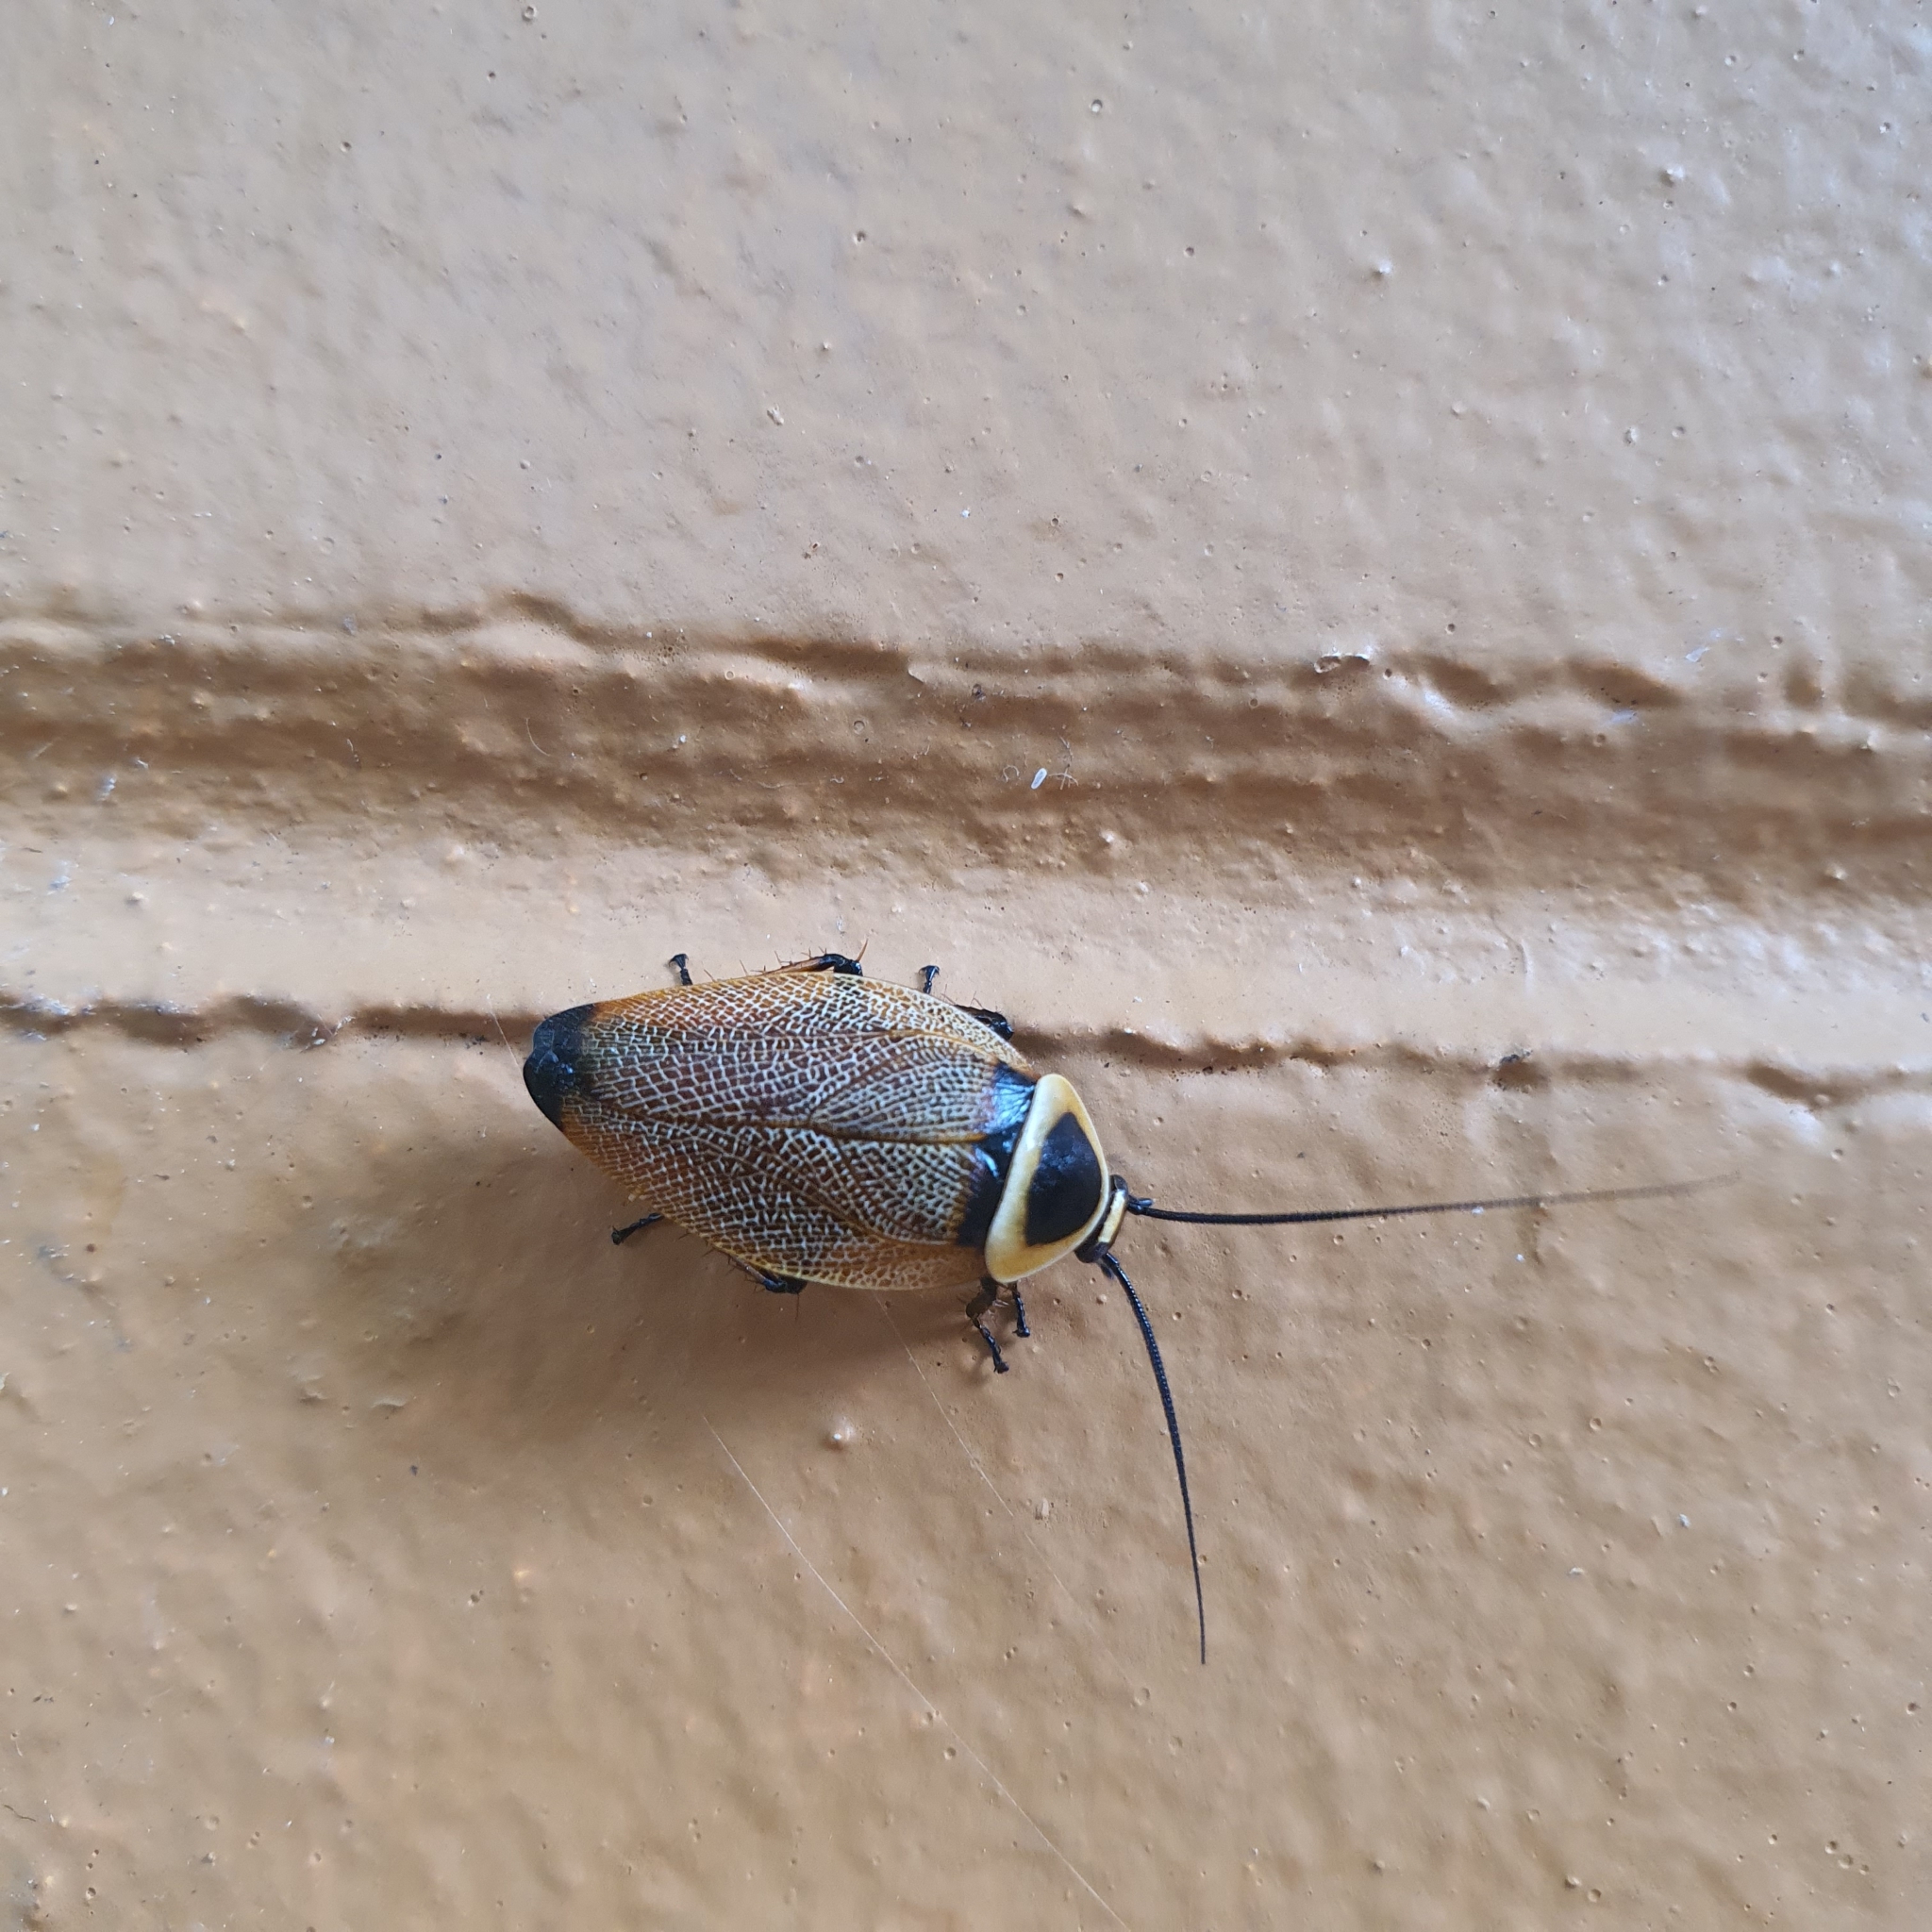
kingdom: Animalia
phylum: Arthropoda
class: Insecta
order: Blattodea
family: Ectobiidae
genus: Ellipsidion
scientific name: Ellipsidion australe
